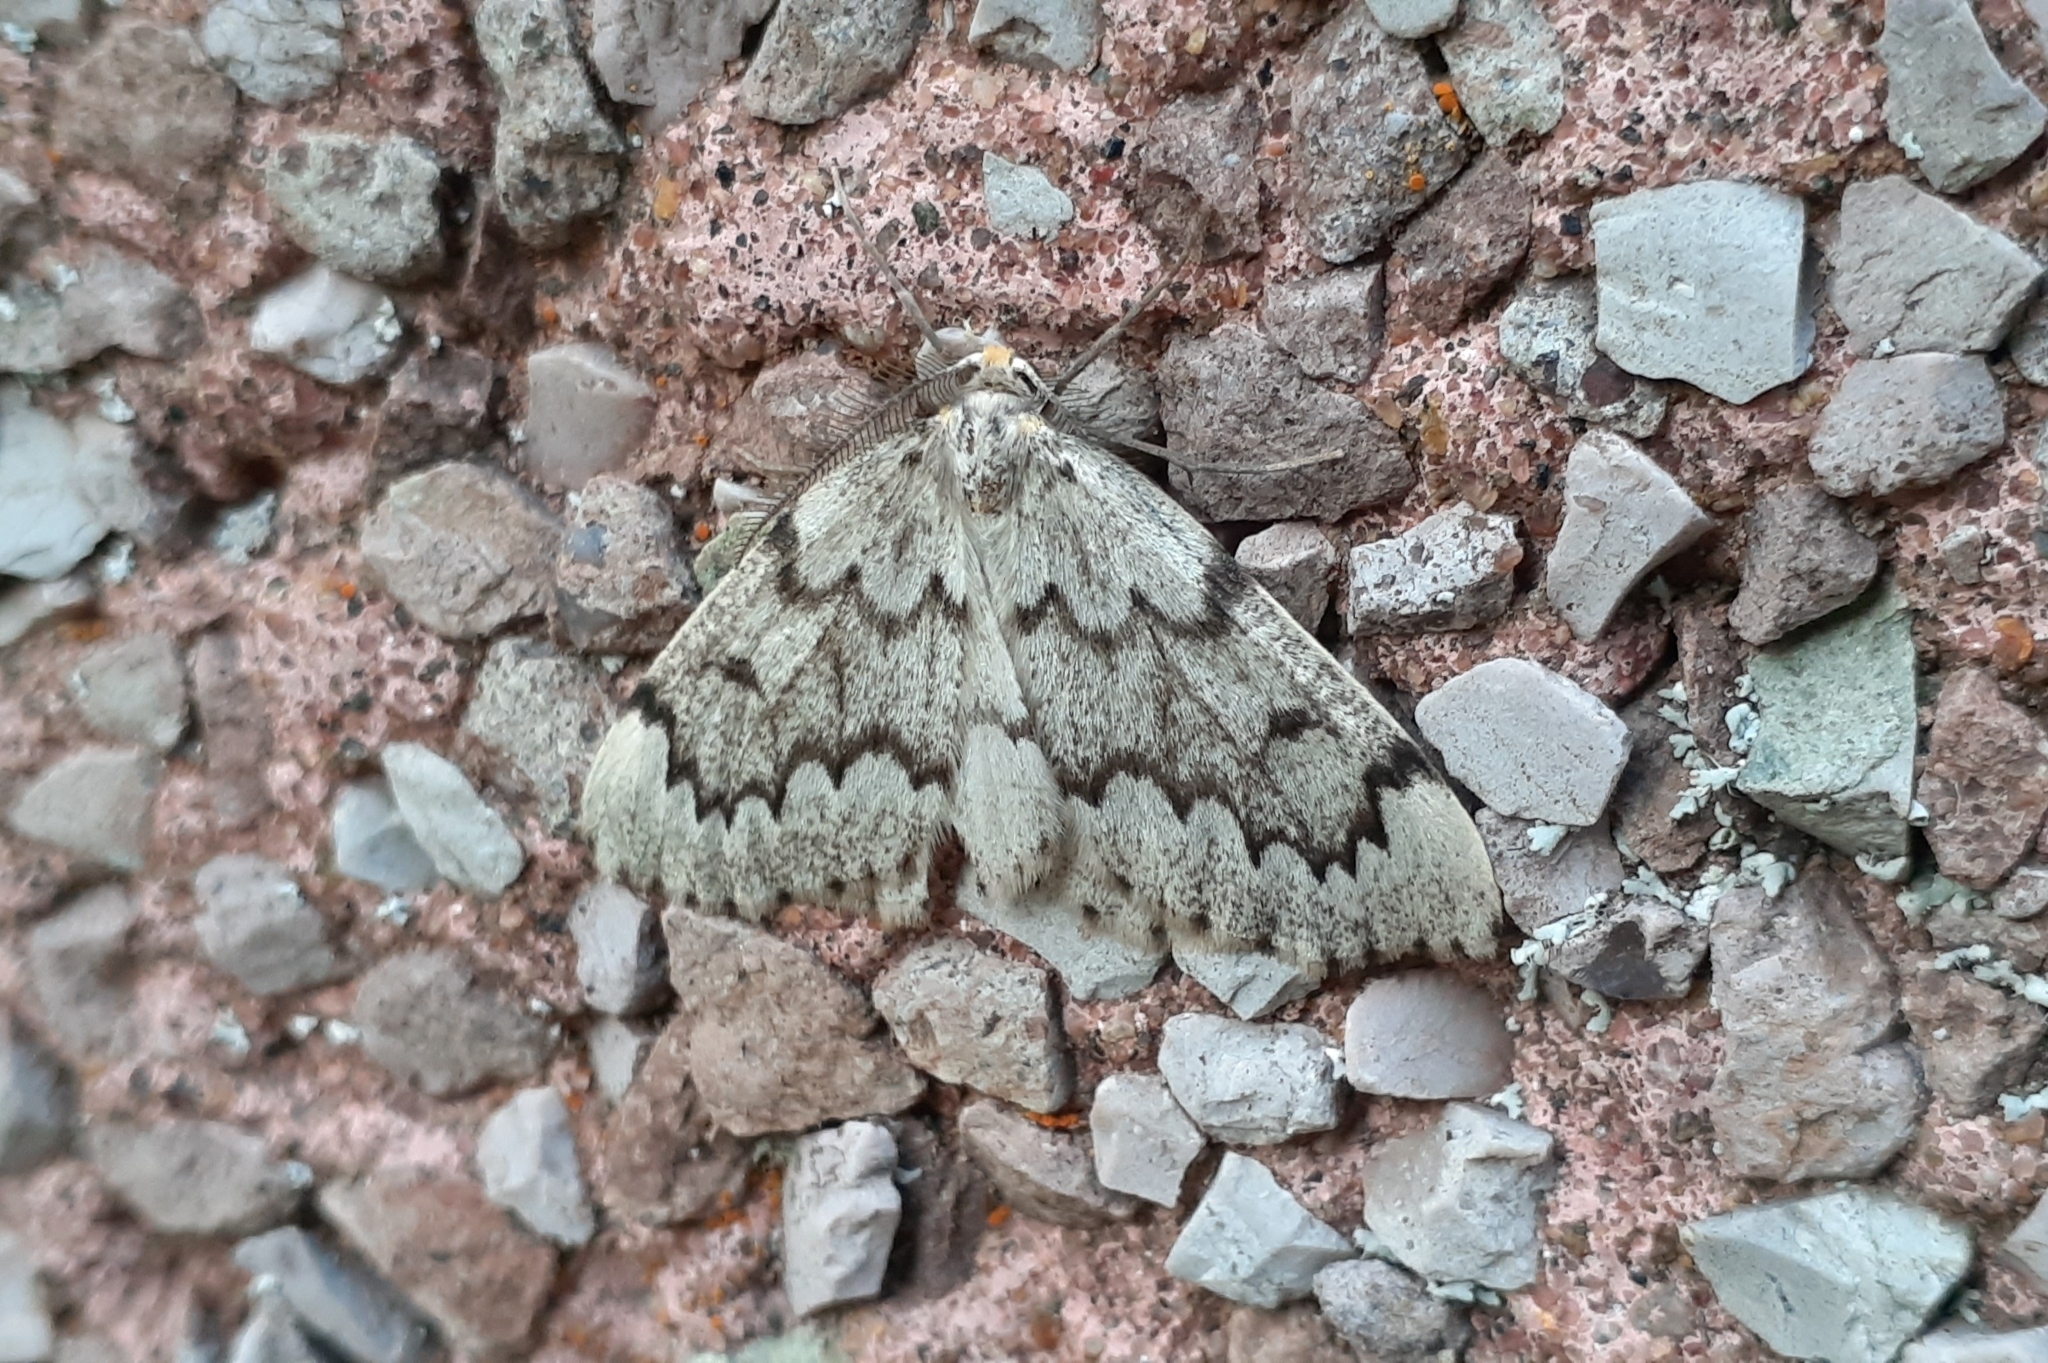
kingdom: Animalia
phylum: Arthropoda
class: Insecta
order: Lepidoptera
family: Geometridae
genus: Nepytia
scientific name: Nepytia canosaria
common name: False hemlock looper
